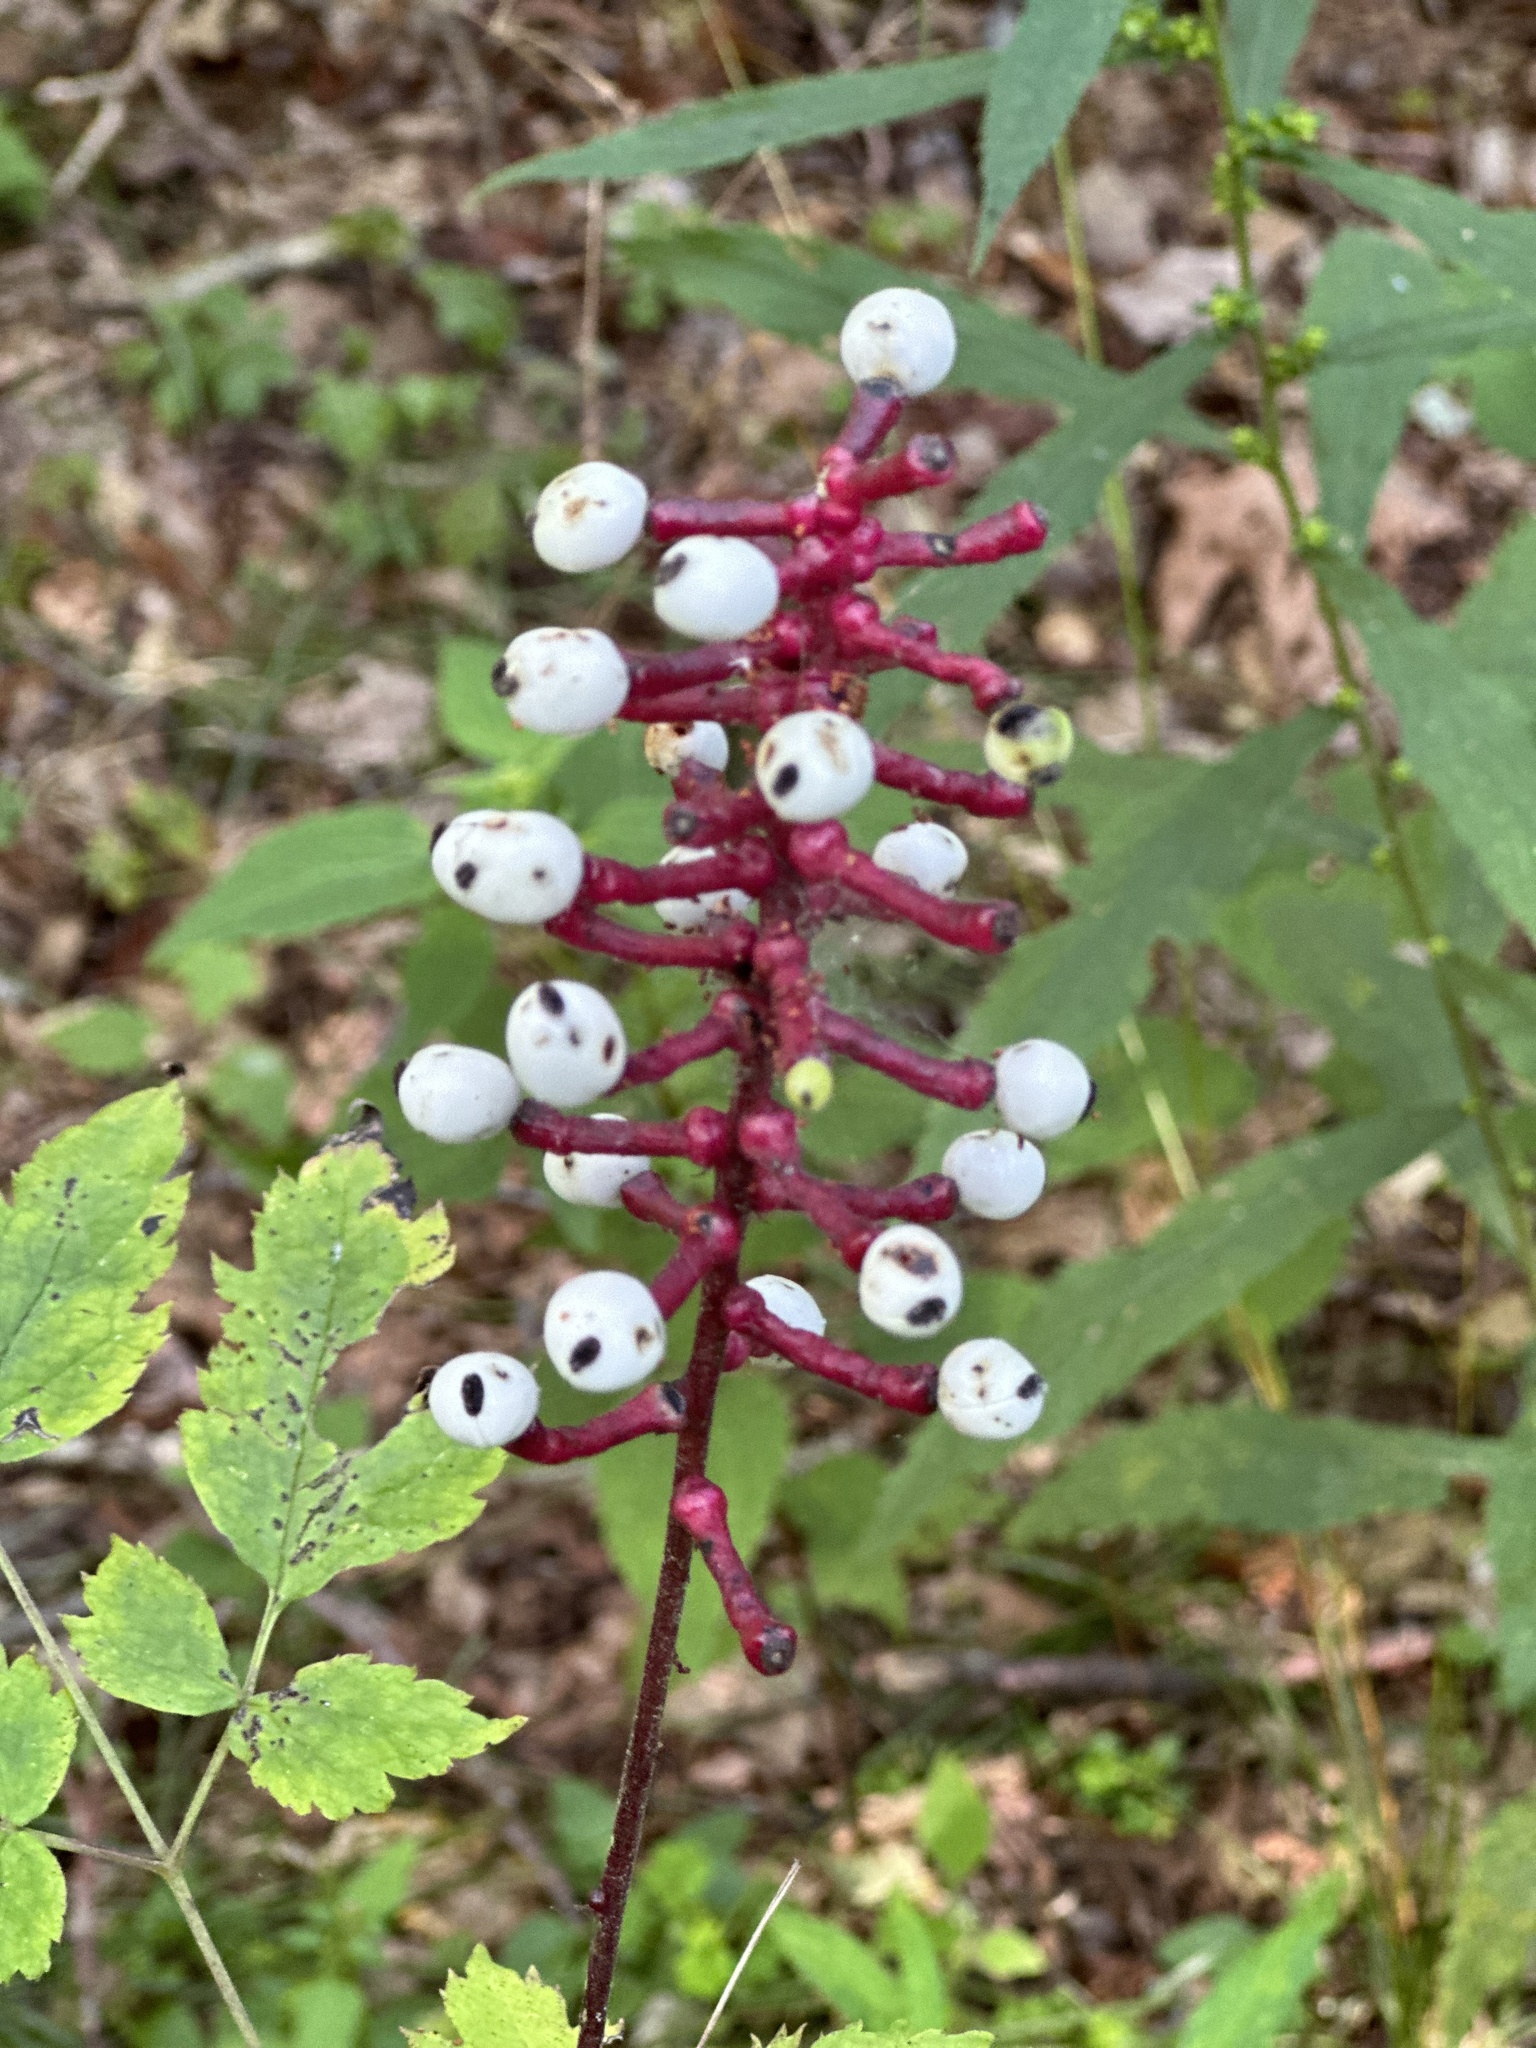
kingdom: Plantae
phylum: Tracheophyta
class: Magnoliopsida
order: Ranunculales
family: Ranunculaceae
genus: Actaea
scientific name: Actaea pachypoda
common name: Doll's-eyes
